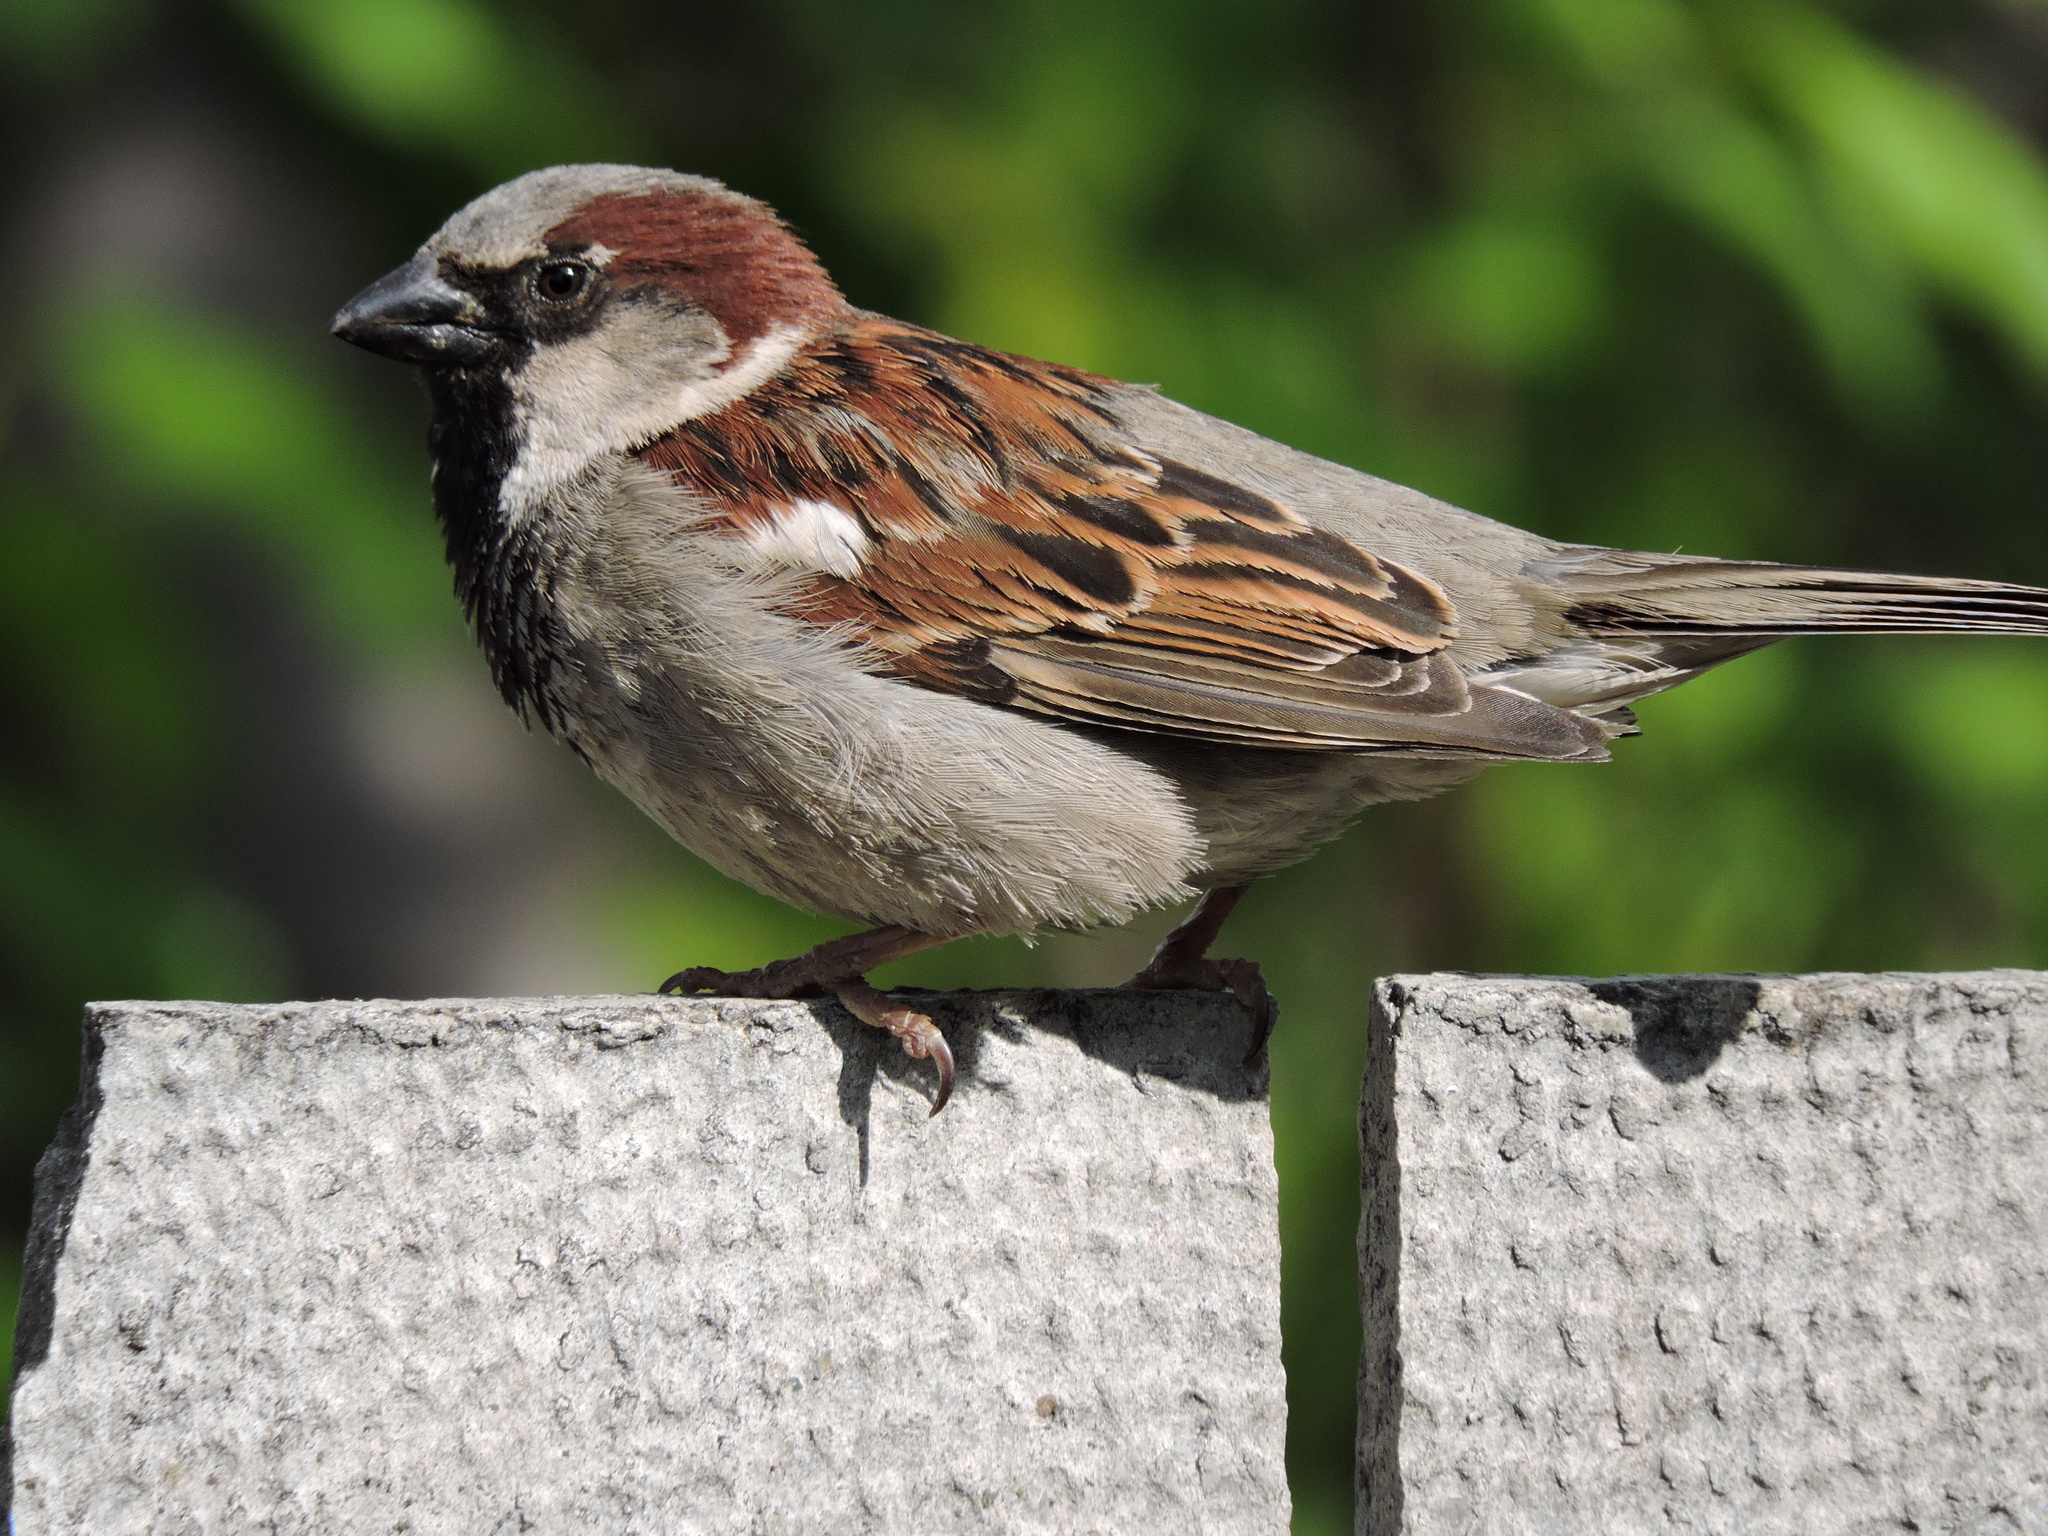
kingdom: Animalia
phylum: Chordata
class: Aves
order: Passeriformes
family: Passeridae
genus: Passer
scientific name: Passer domesticus
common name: House sparrow
